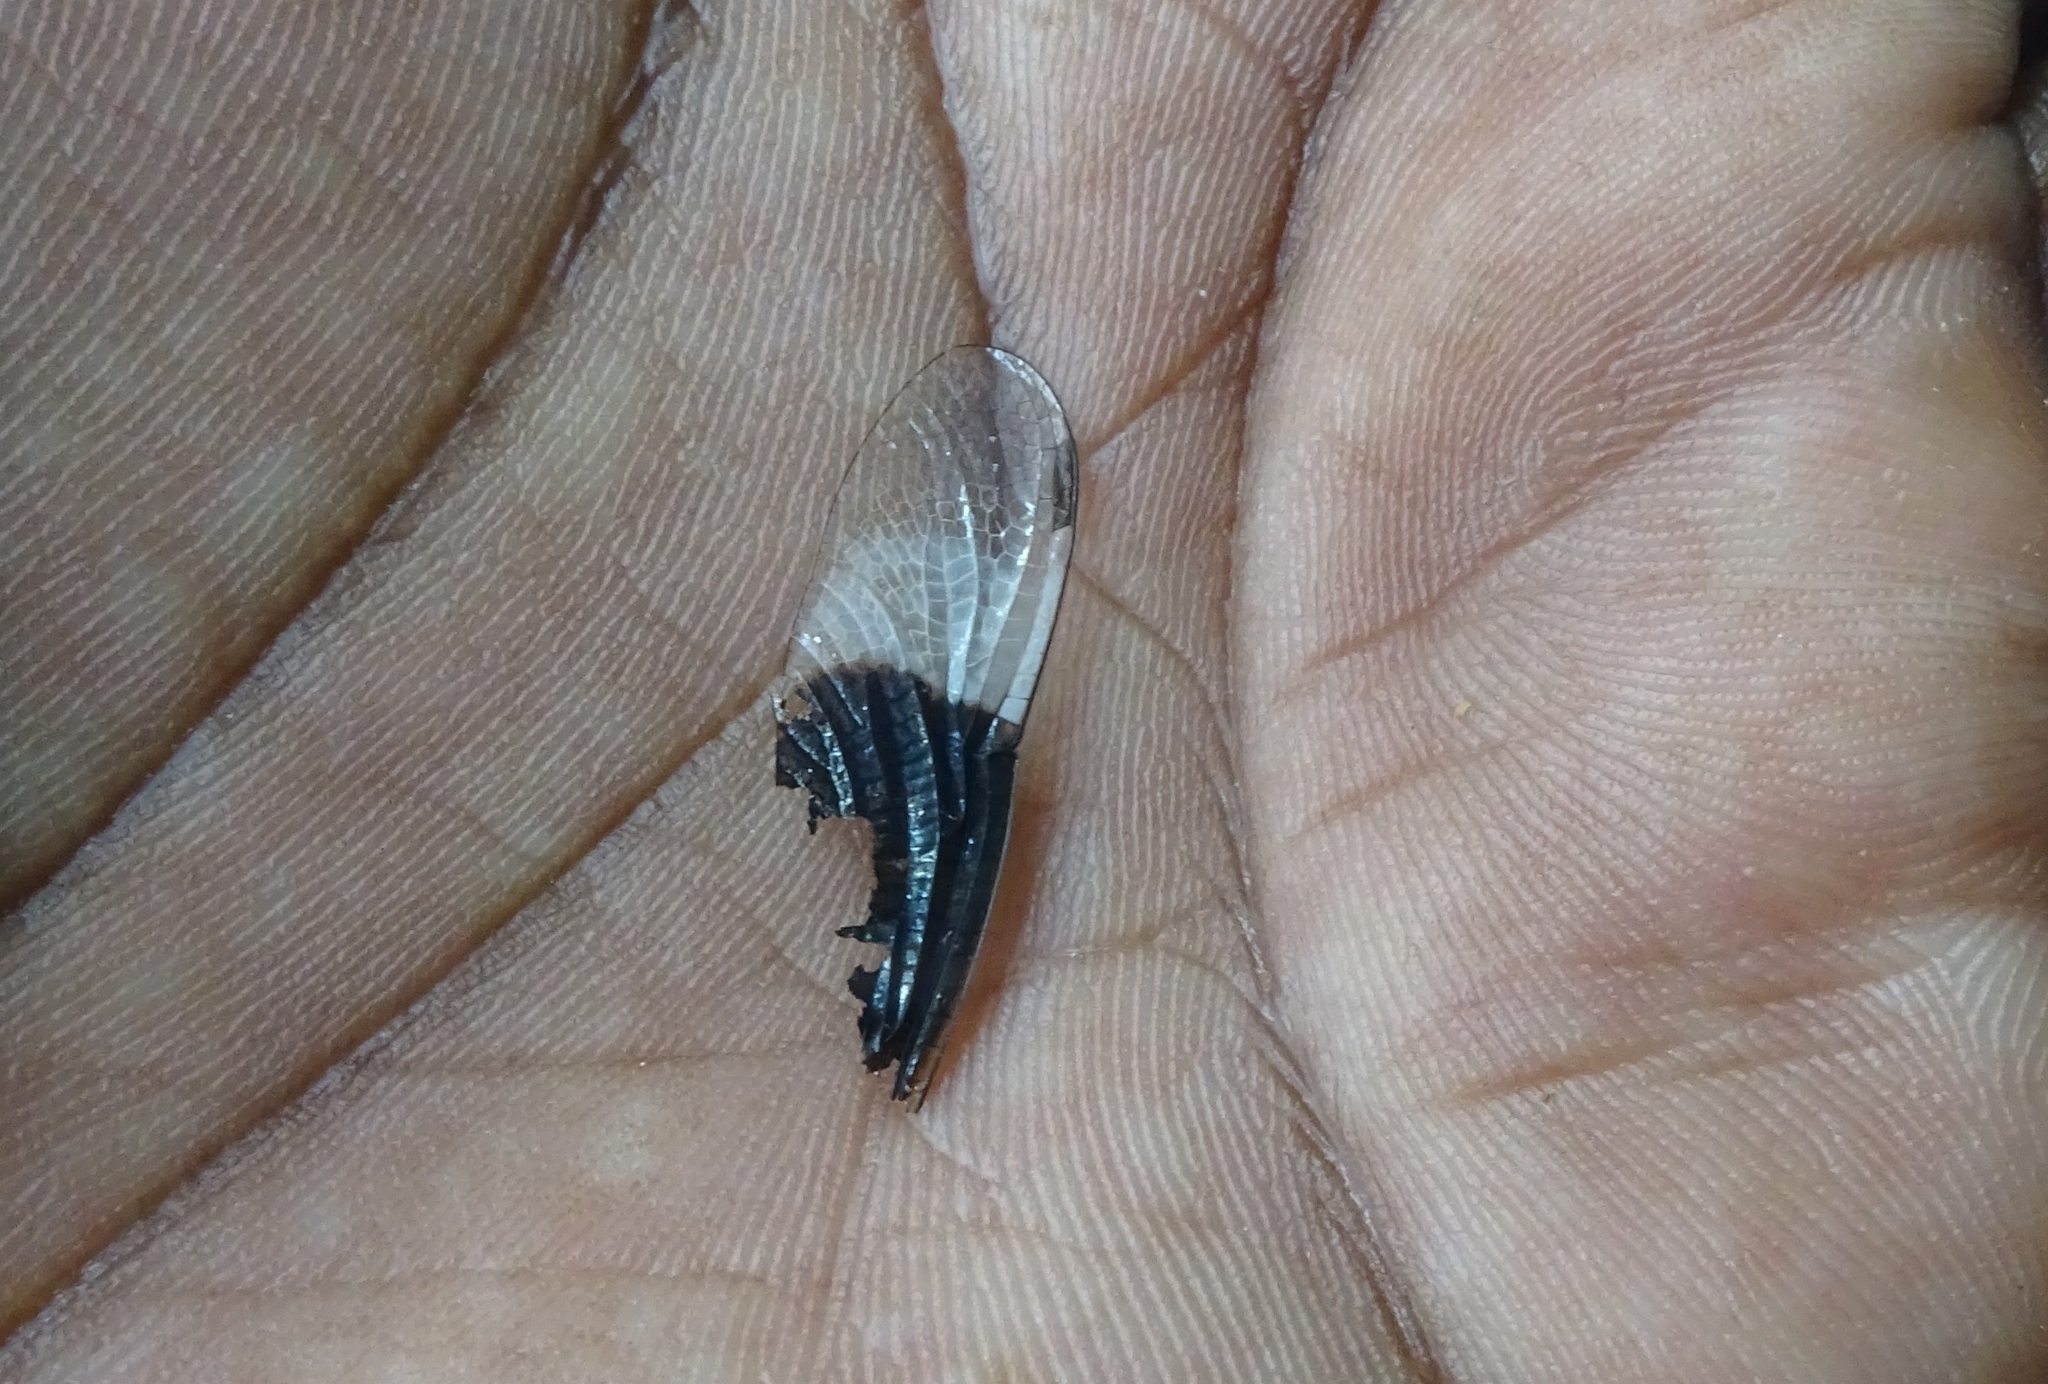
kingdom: Animalia
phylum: Arthropoda
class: Insecta
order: Odonata
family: Libellulidae
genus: Neurothemis
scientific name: Neurothemis tullia
